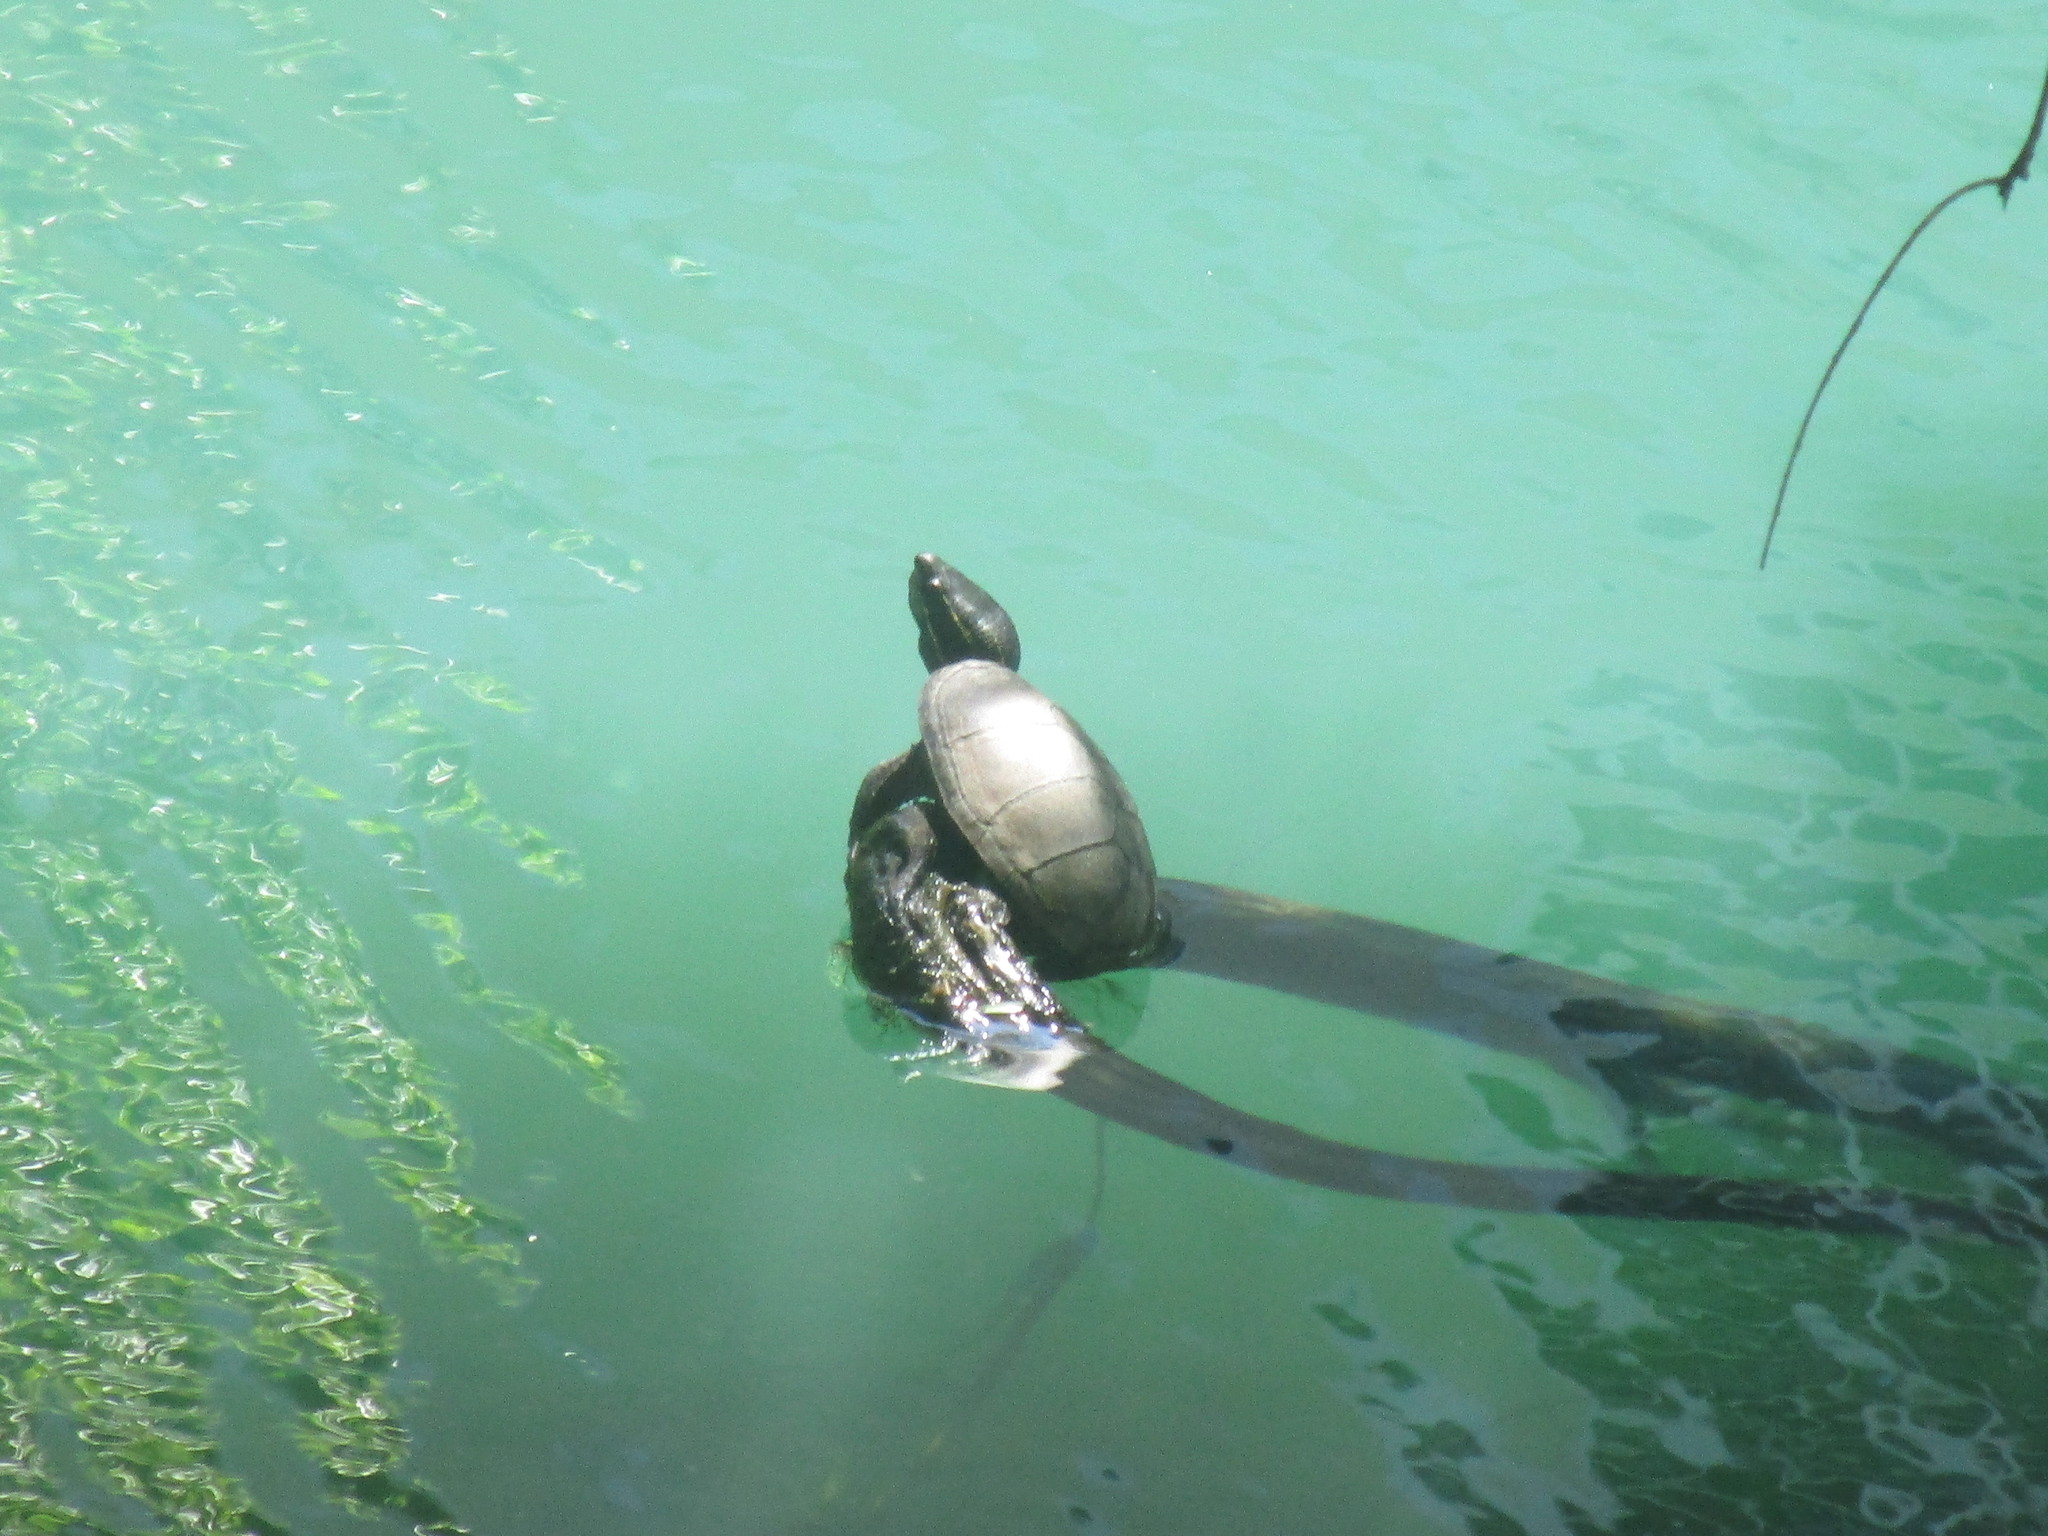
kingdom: Animalia
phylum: Chordata
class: Testudines
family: Kinosternidae
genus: Sternotherus
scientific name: Sternotherus odoratus
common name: Common musk turtle
